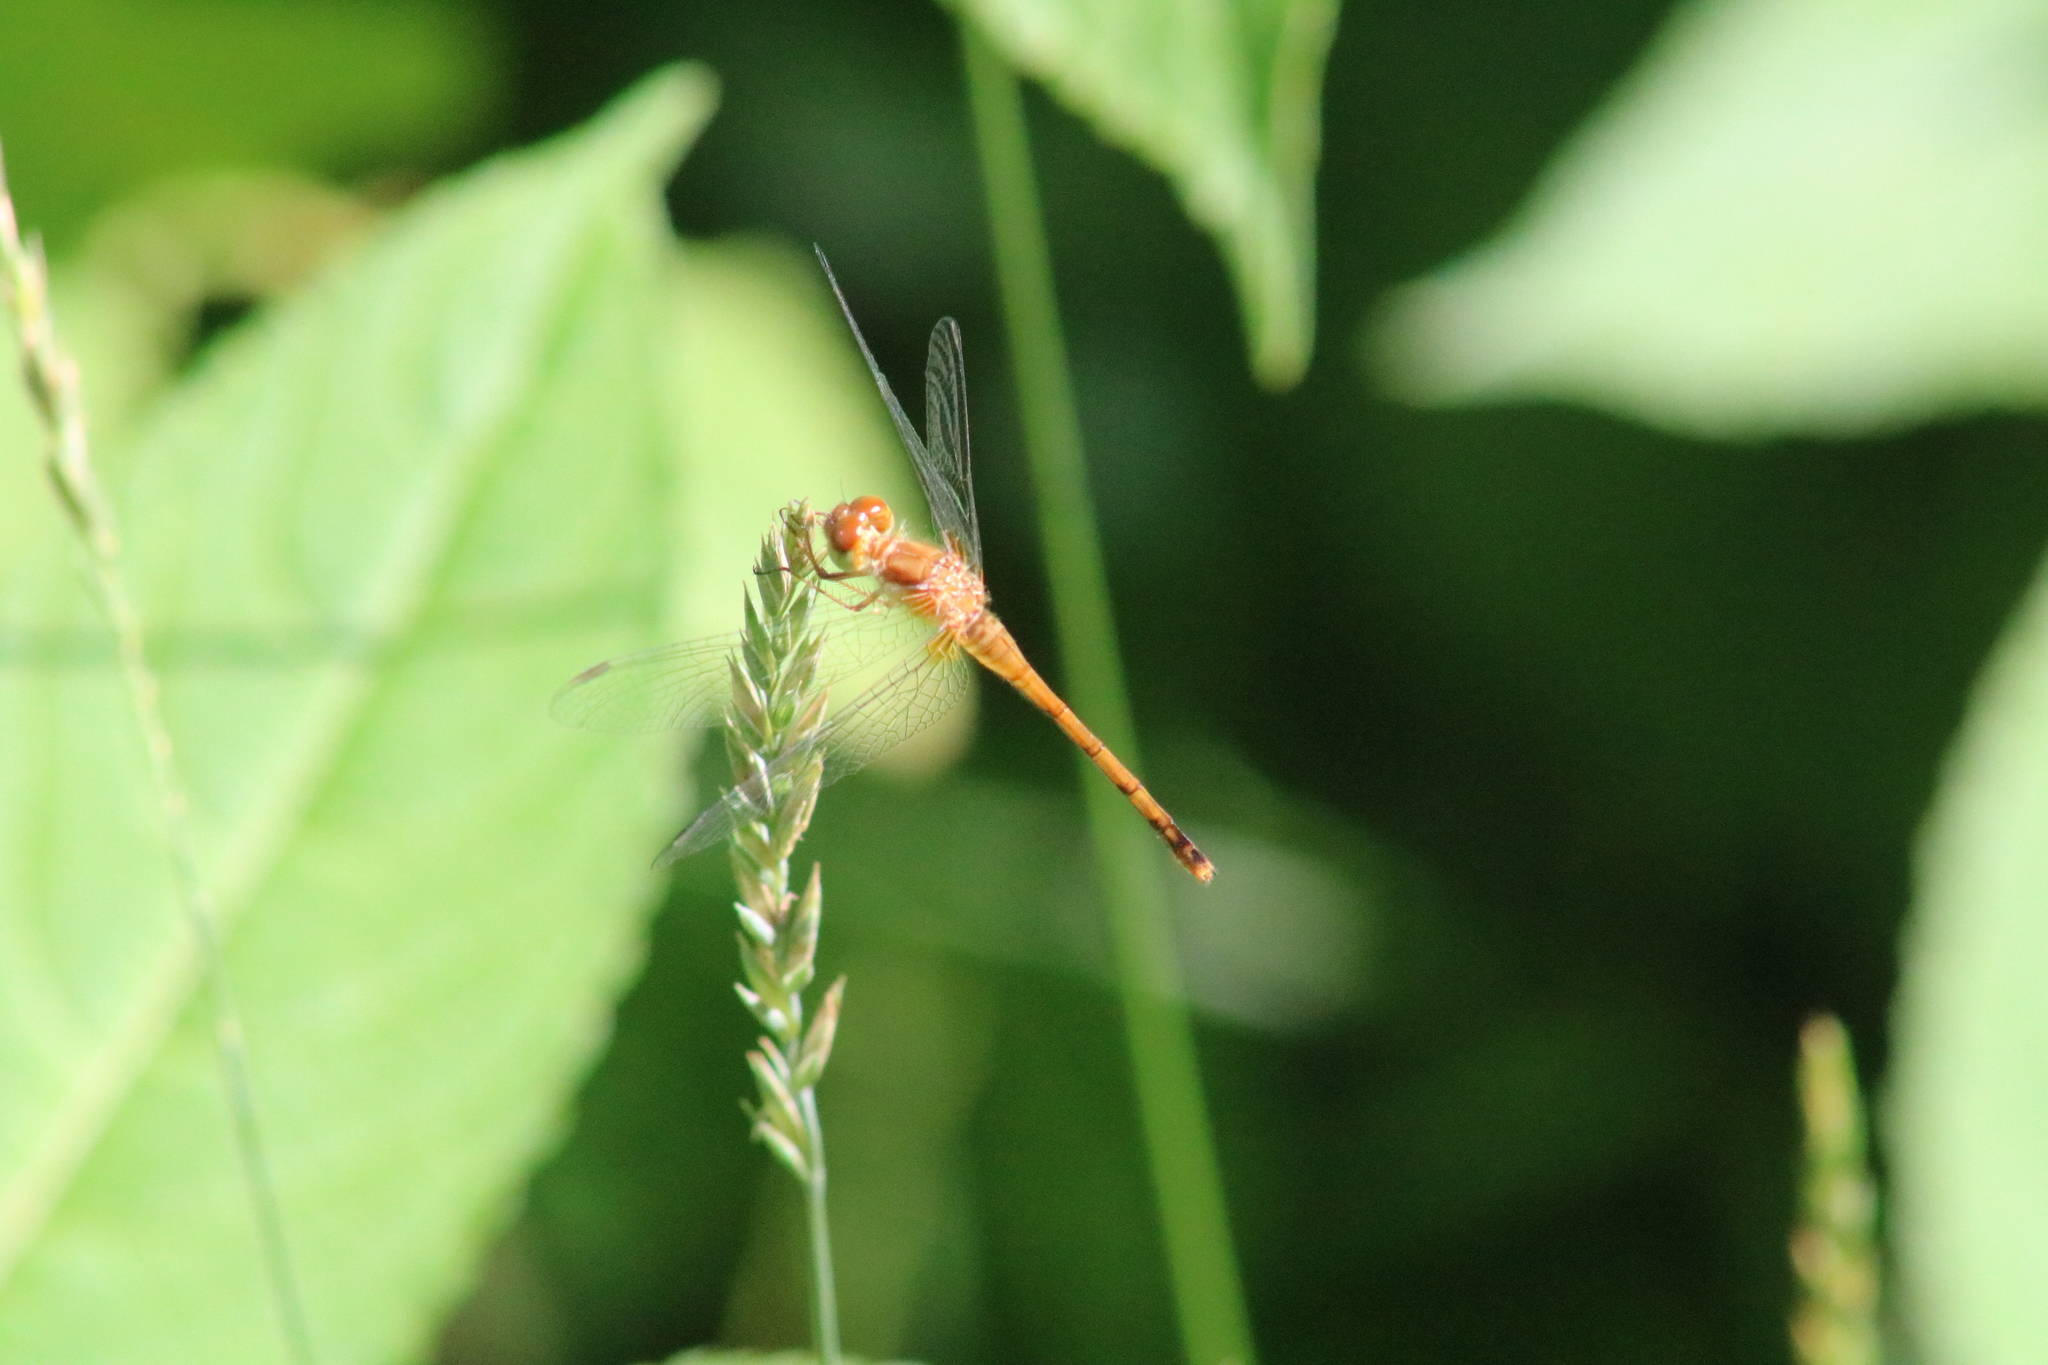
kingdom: Animalia
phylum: Arthropoda
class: Insecta
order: Odonata
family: Libellulidae
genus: Sympetrum
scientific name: Sympetrum vicinum
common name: Autumn meadowhawk
